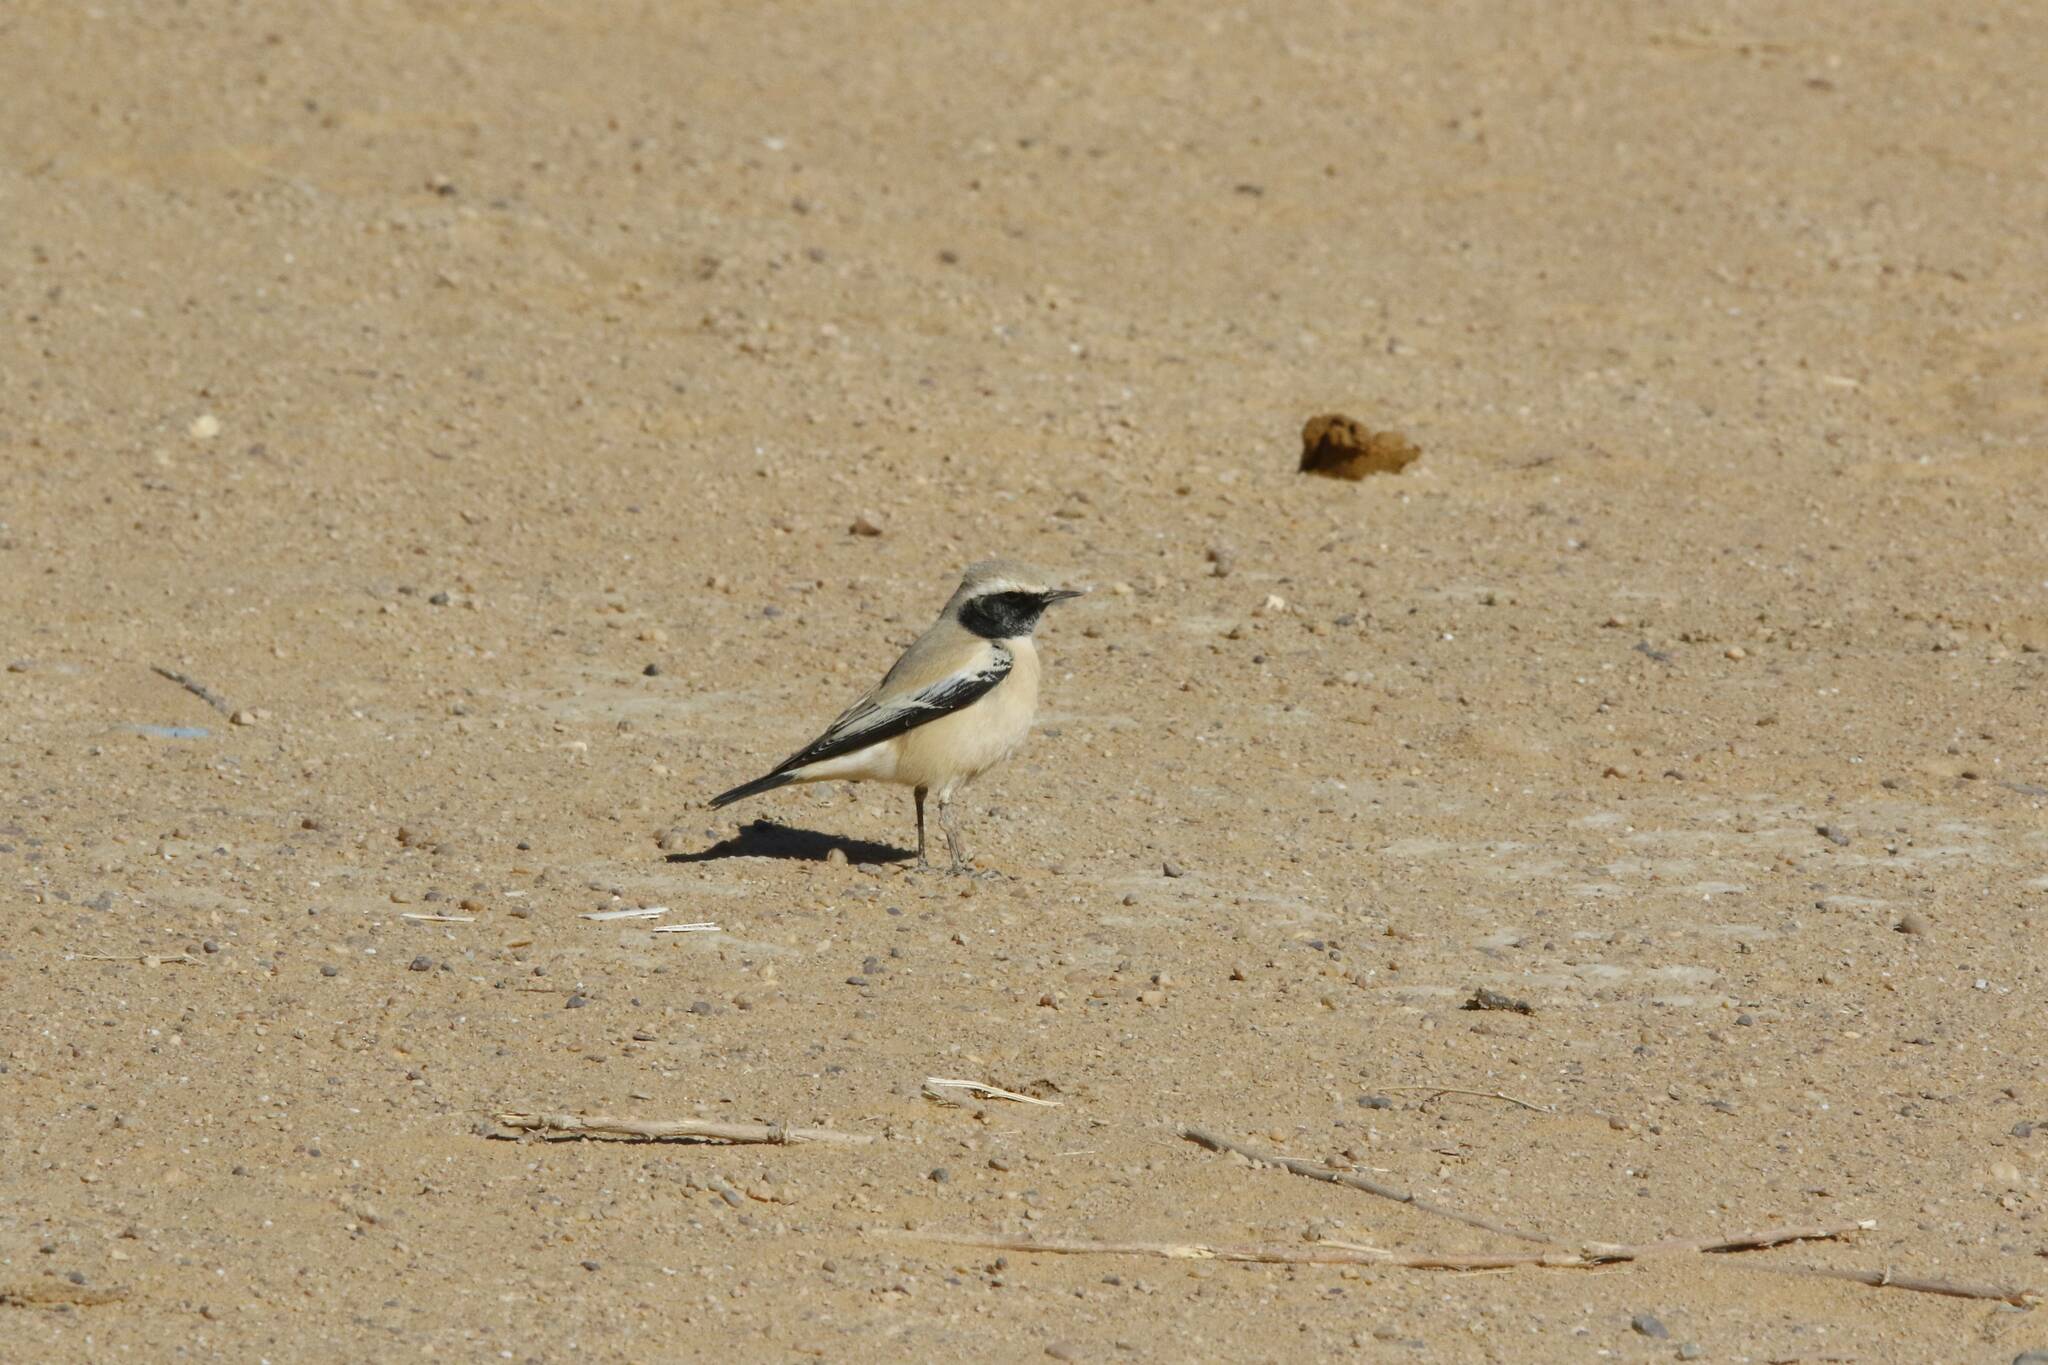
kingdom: Animalia
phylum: Chordata
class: Aves
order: Passeriformes
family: Muscicapidae
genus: Oenanthe
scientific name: Oenanthe deserti
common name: Desert wheatear
